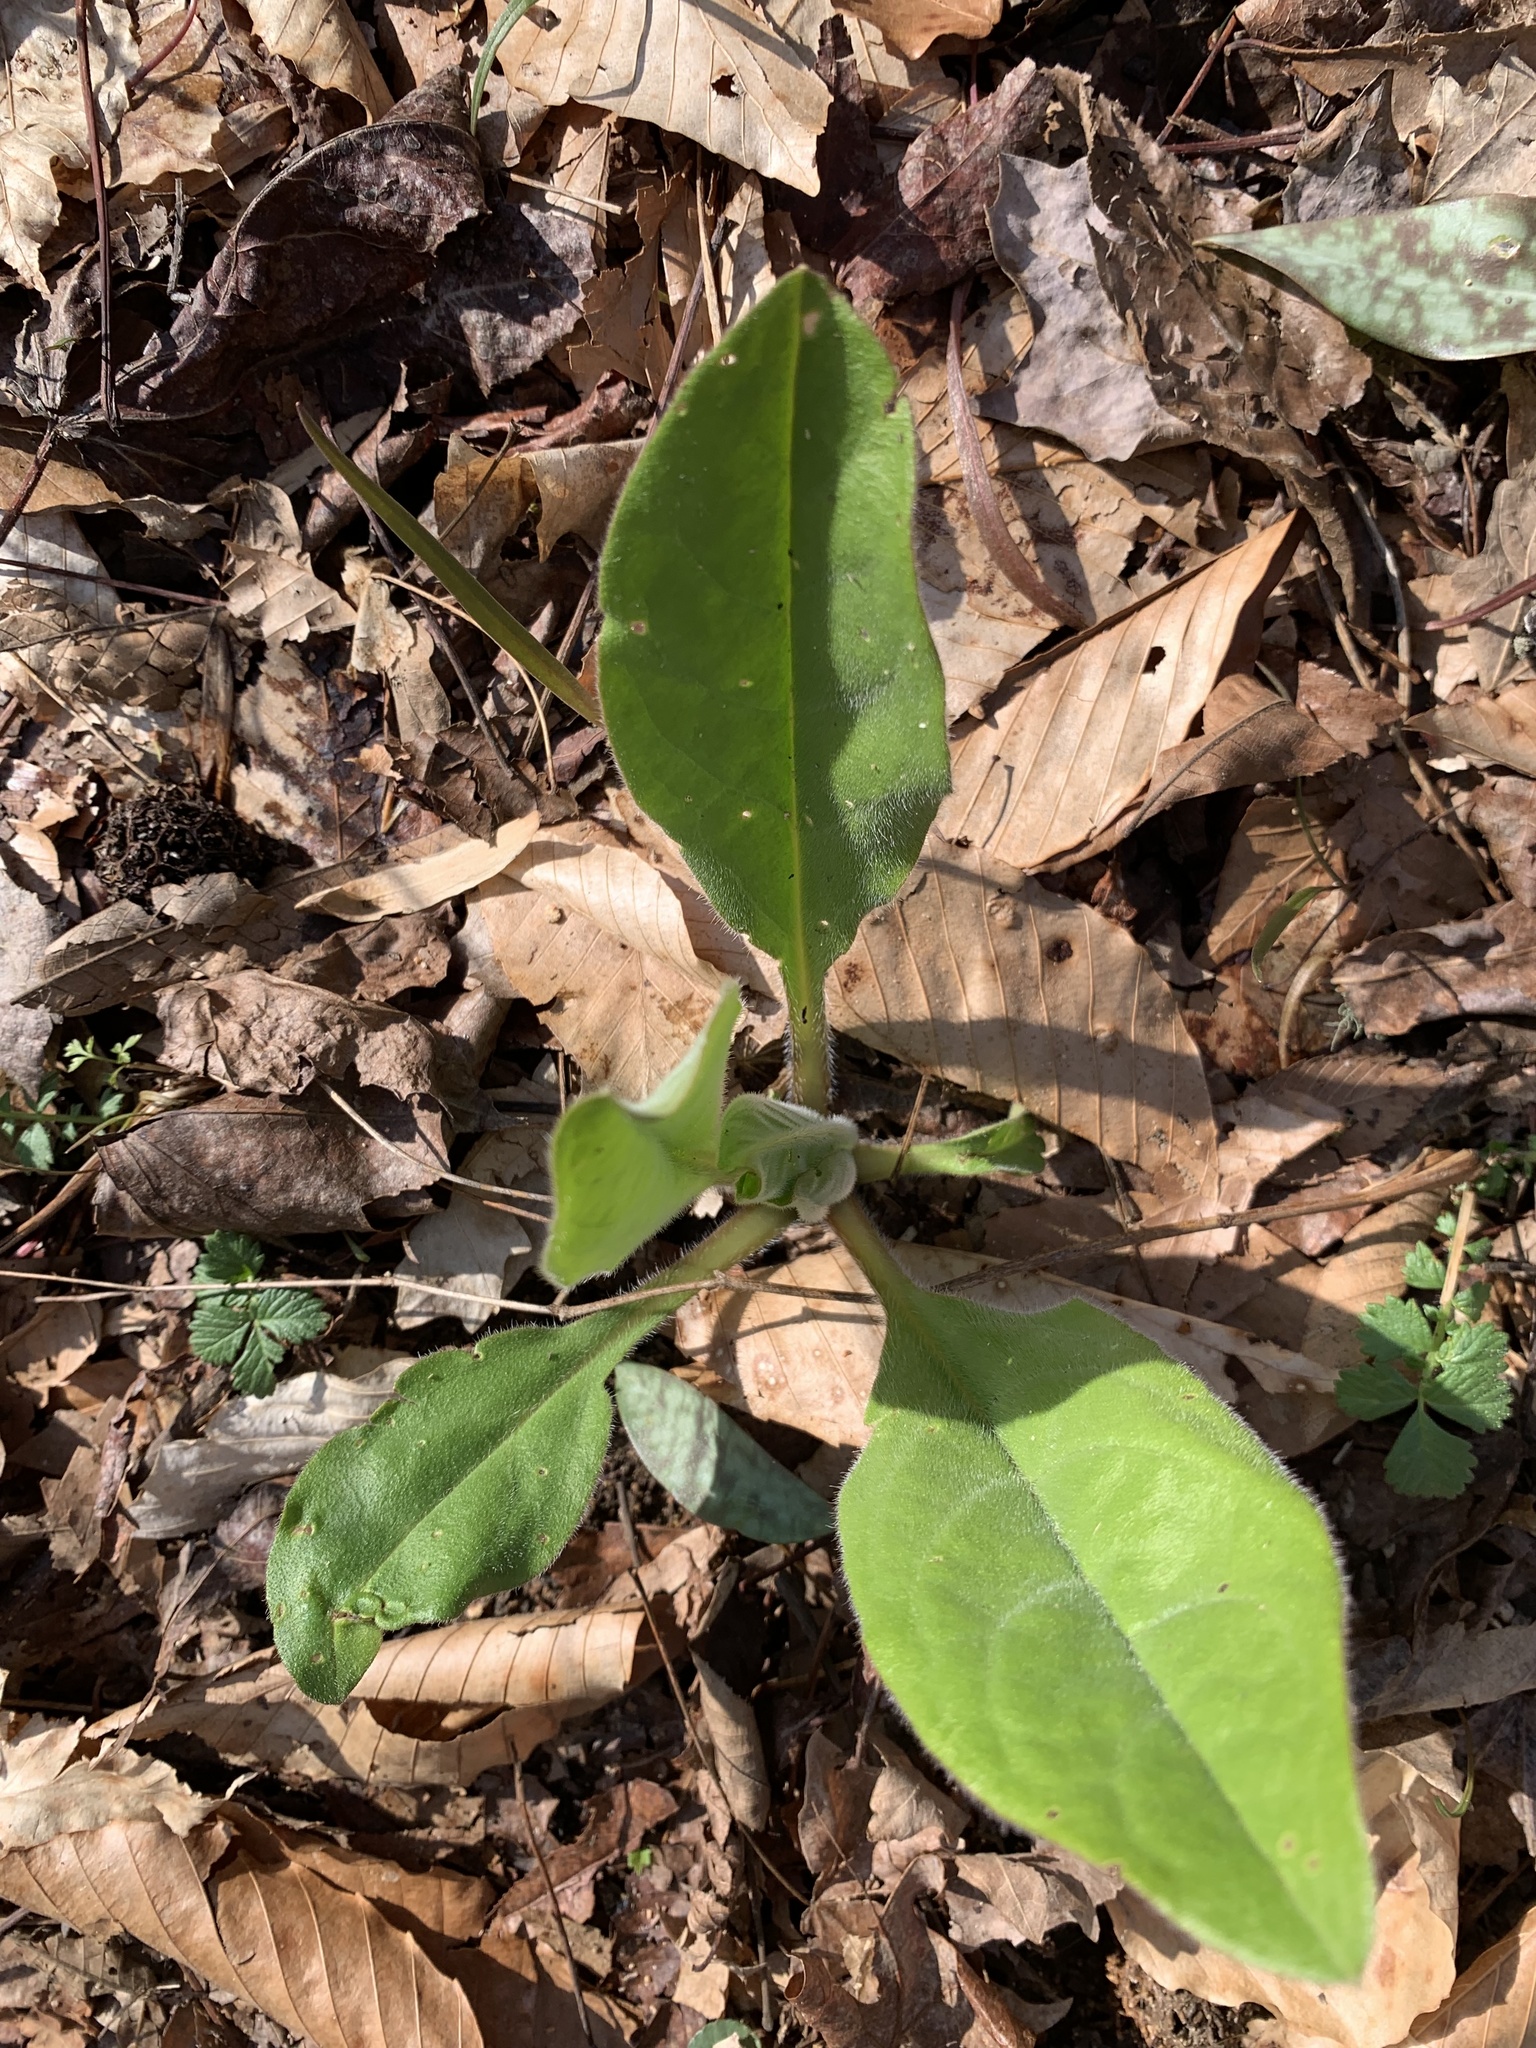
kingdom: Plantae
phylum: Tracheophyta
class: Magnoliopsida
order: Boraginales
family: Boraginaceae
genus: Andersonglossum
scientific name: Andersonglossum virginianum
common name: Wild comfrey
